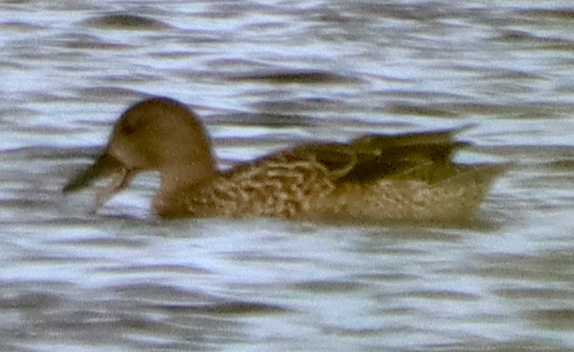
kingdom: Animalia
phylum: Chordata
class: Aves
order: Anseriformes
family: Anatidae
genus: Spatula
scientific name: Spatula discors
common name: Blue-winged teal
